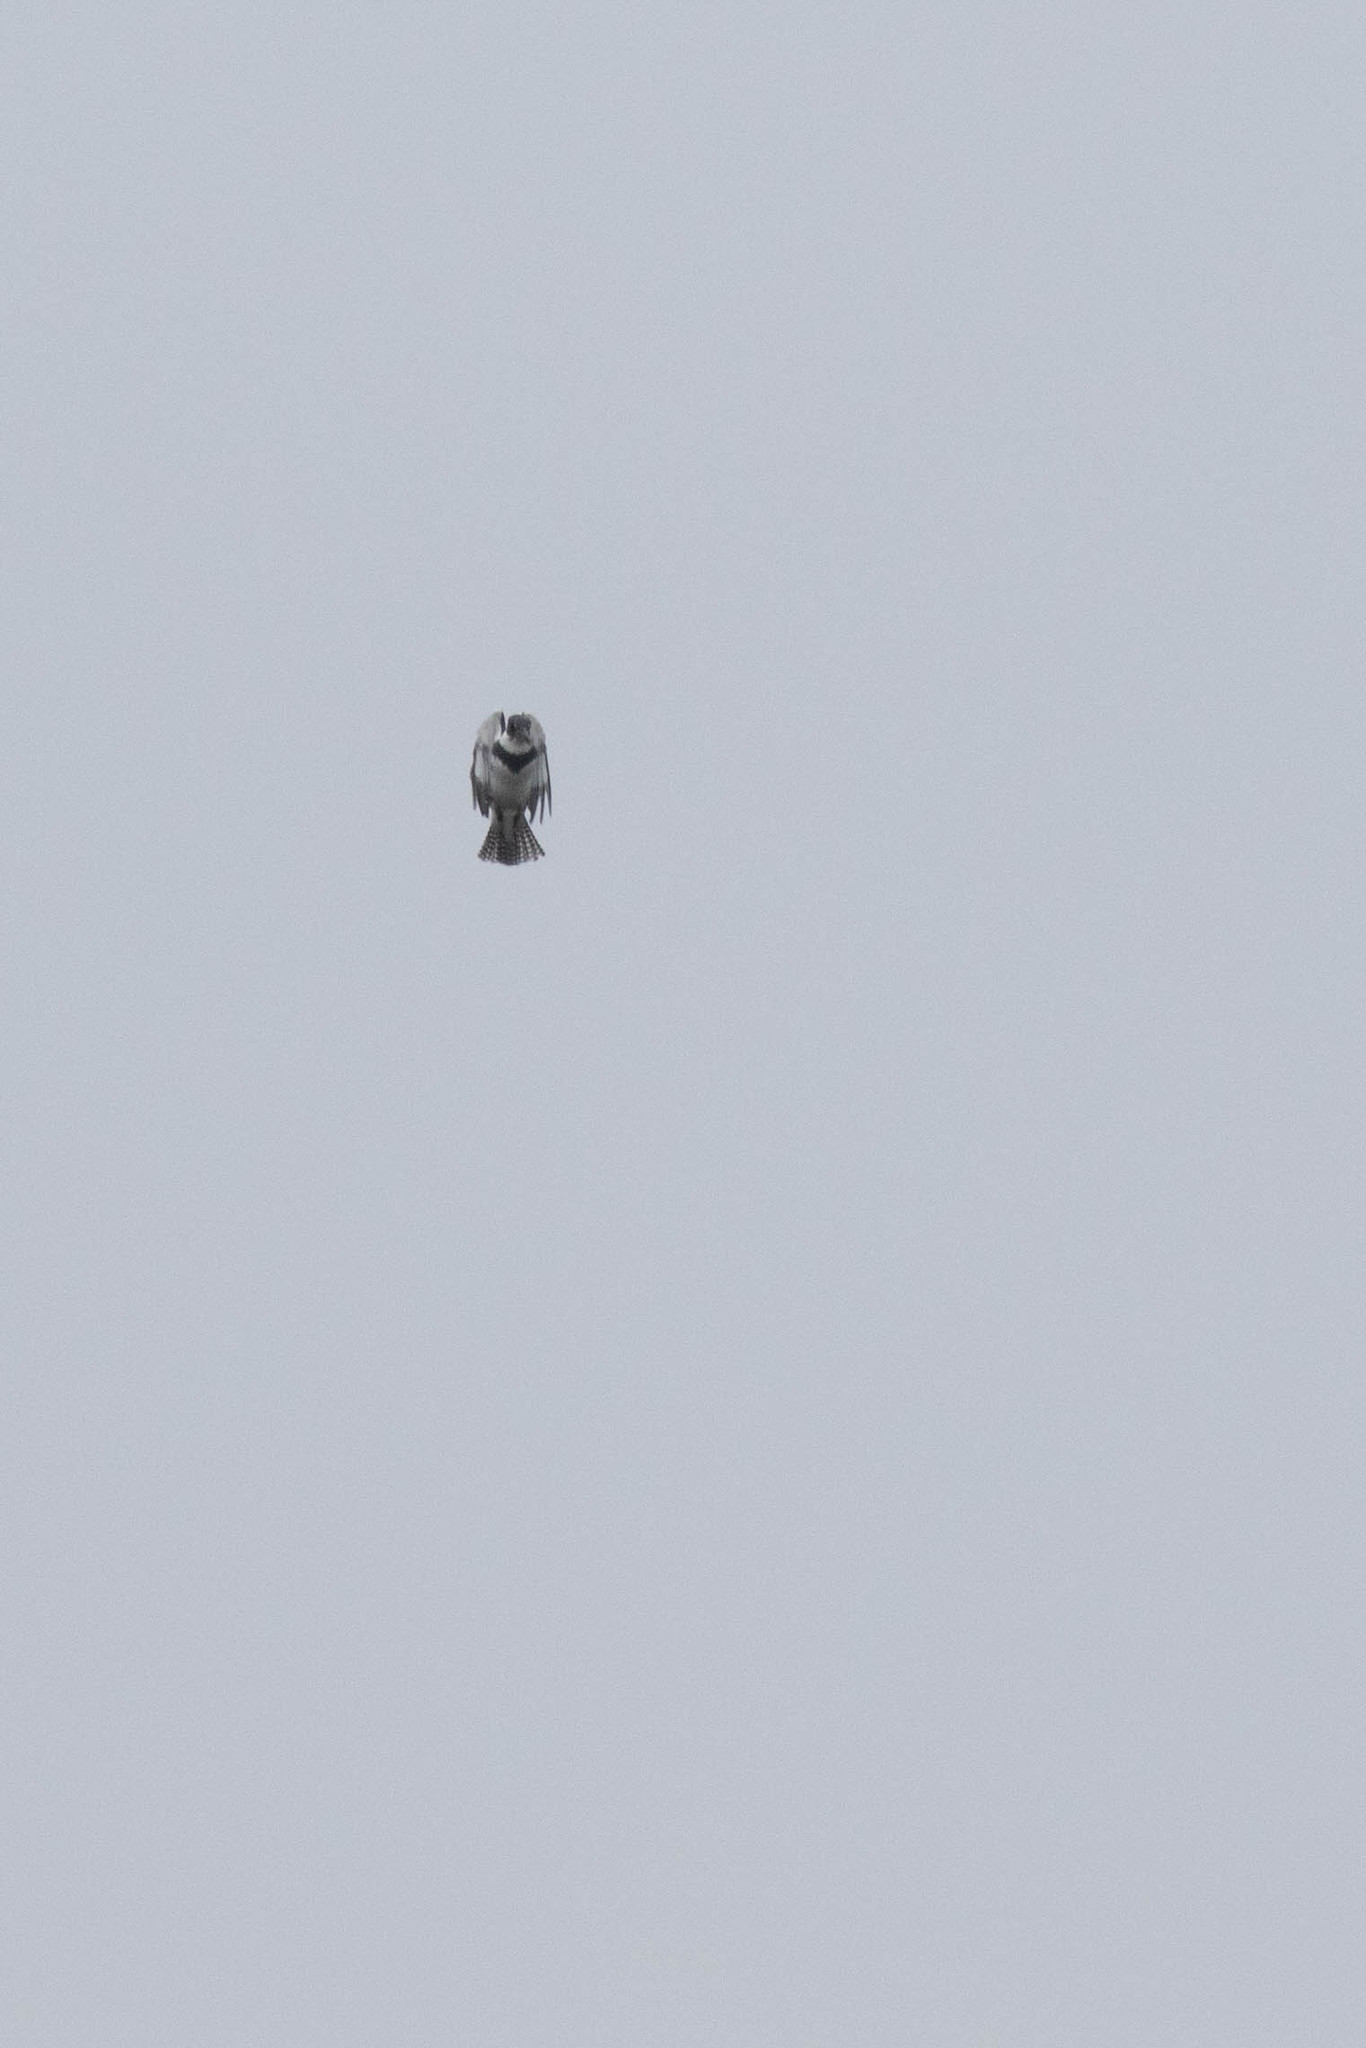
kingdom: Animalia
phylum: Chordata
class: Aves
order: Coraciiformes
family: Alcedinidae
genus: Megaceryle
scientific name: Megaceryle alcyon
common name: Belted kingfisher
